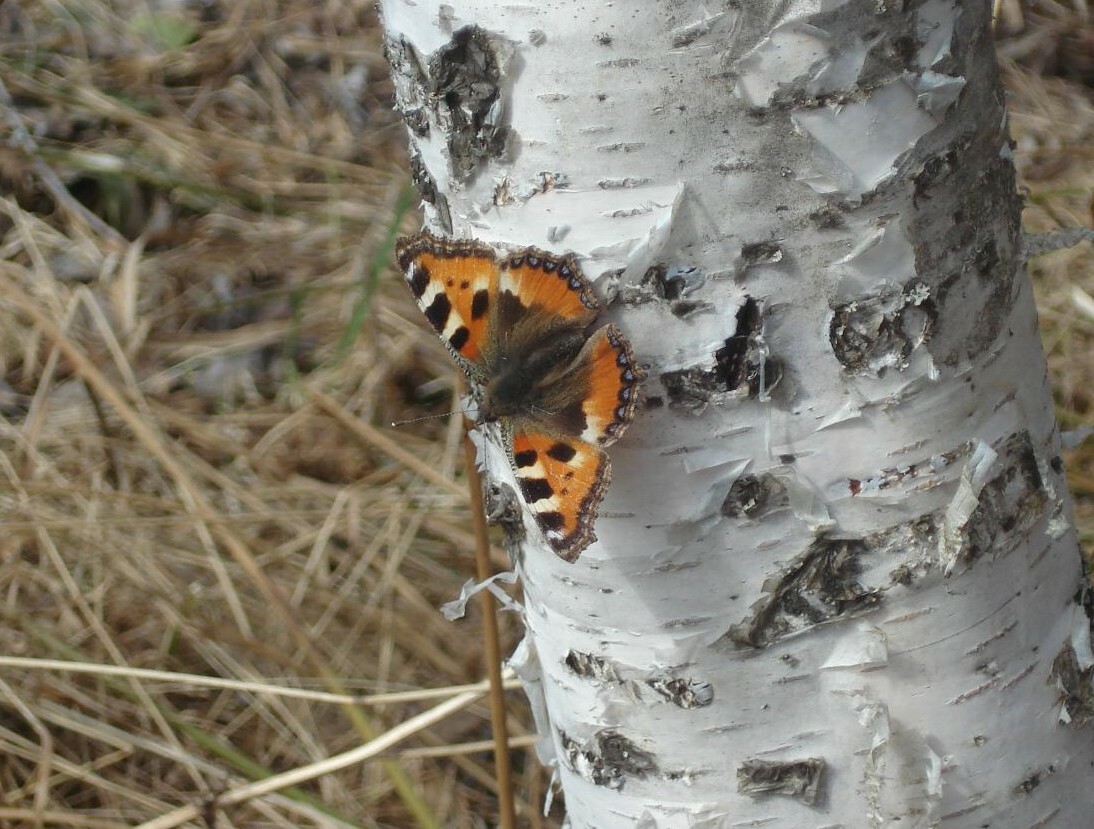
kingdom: Animalia
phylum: Arthropoda
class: Insecta
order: Lepidoptera
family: Nymphalidae
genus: Aglais
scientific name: Aglais urticae
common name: Small tortoiseshell
